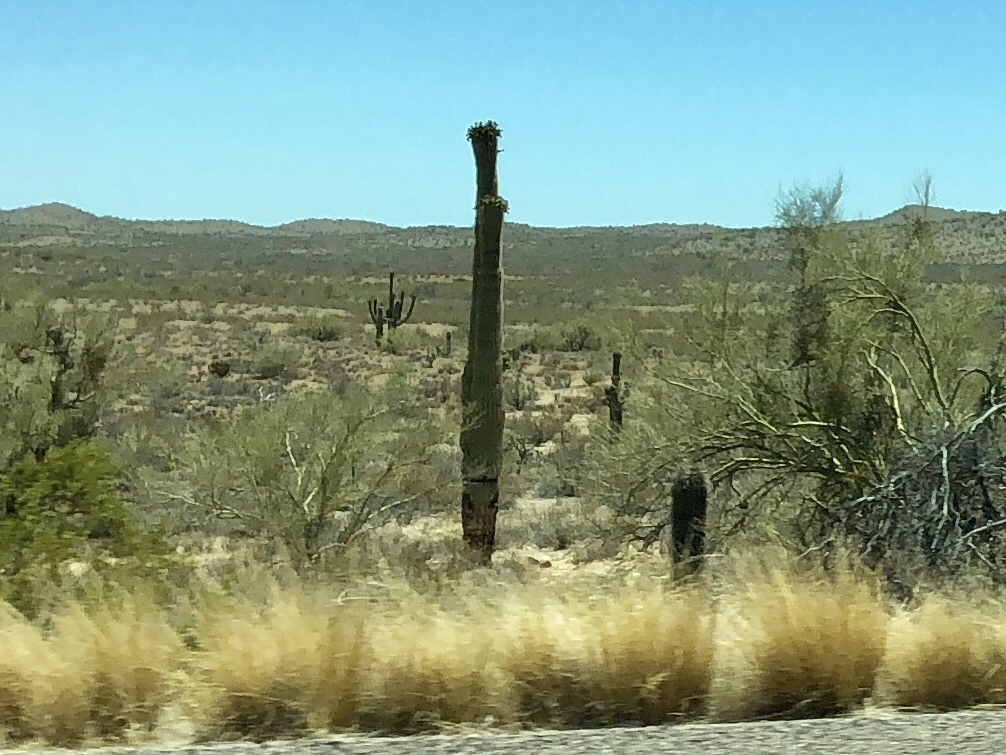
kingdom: Plantae
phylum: Tracheophyta
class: Magnoliopsida
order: Caryophyllales
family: Cactaceae
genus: Carnegiea
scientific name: Carnegiea gigantea
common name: Saguaro
